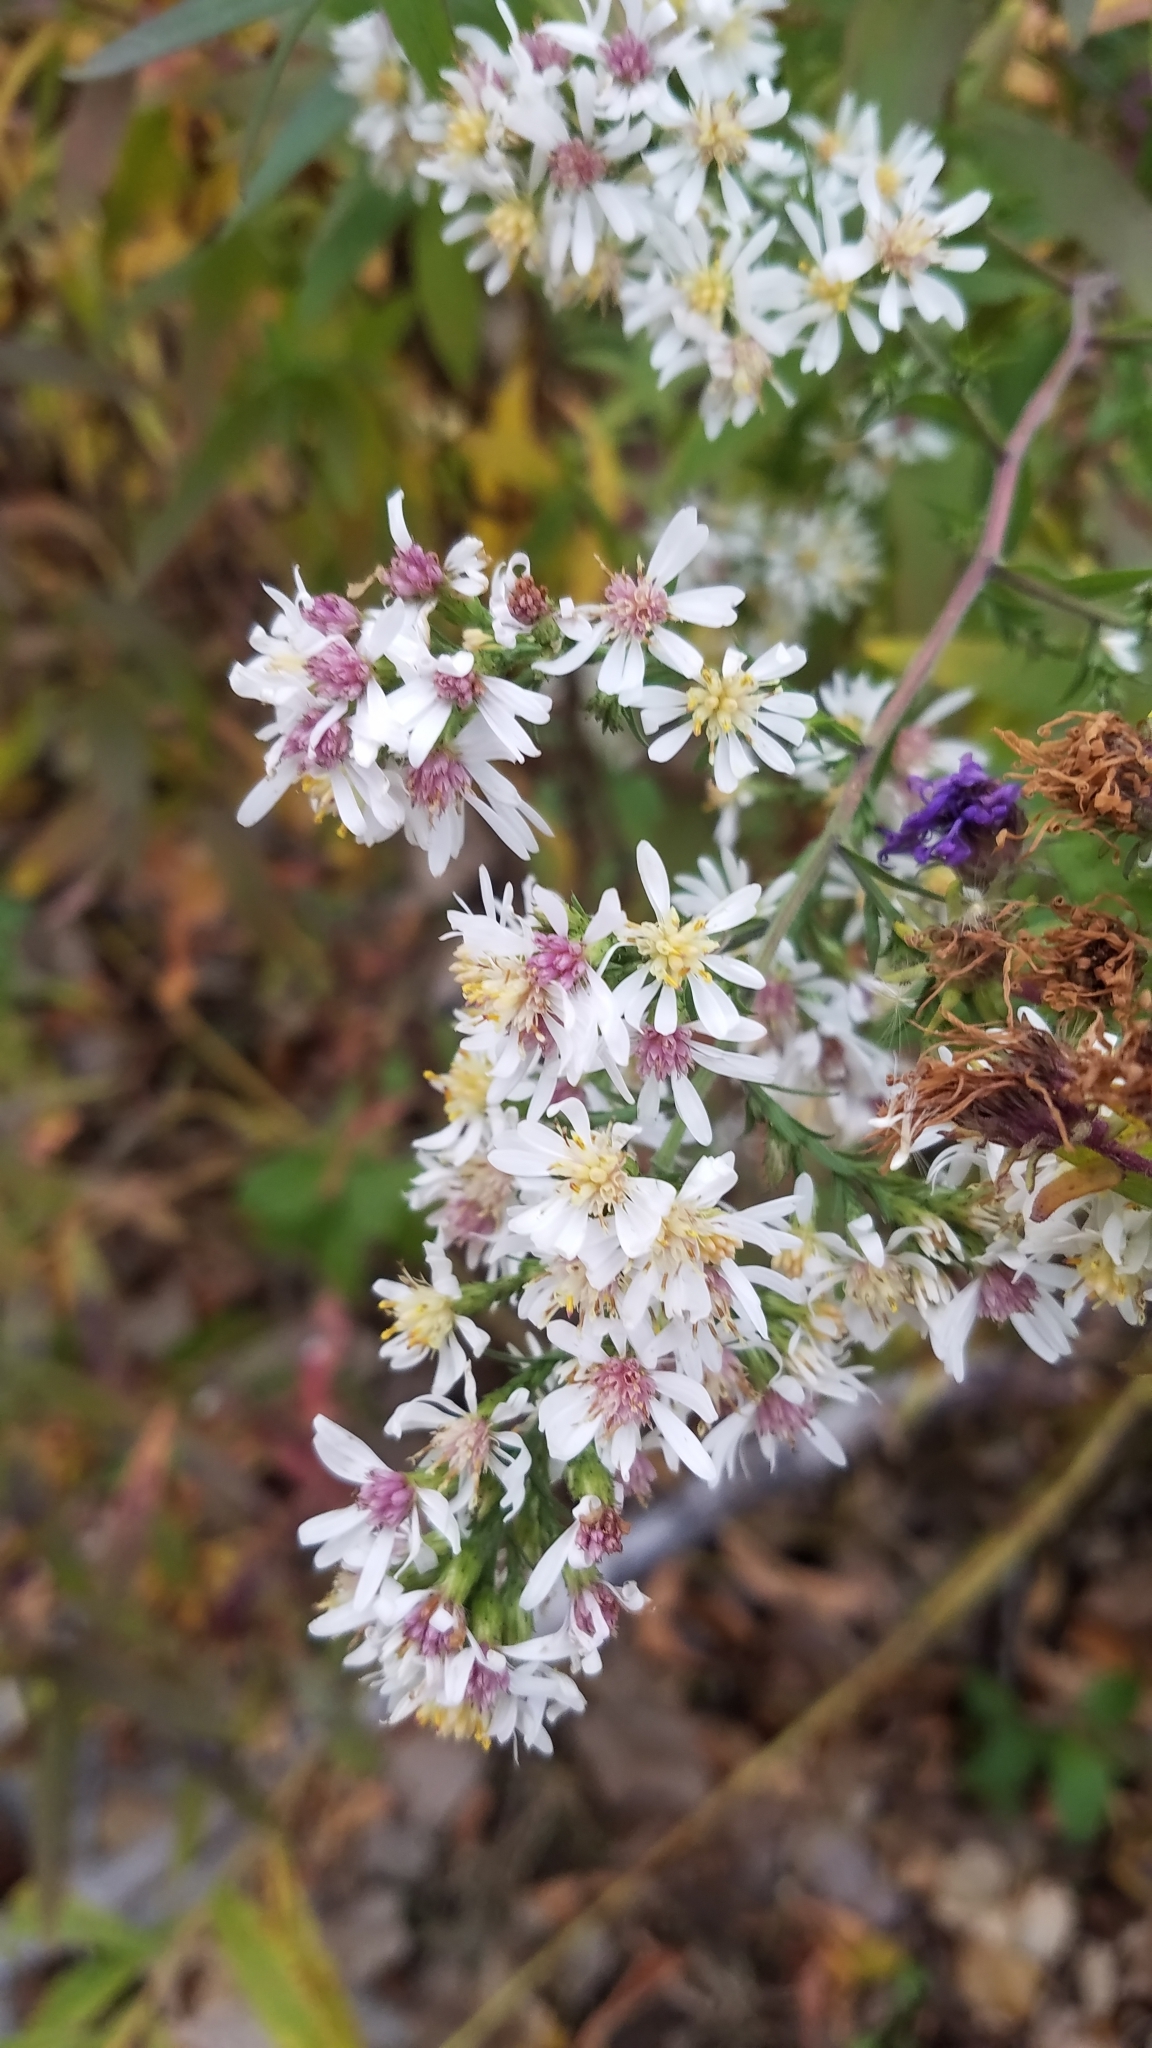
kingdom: Plantae
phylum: Tracheophyta
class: Magnoliopsida
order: Asterales
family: Asteraceae
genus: Symphyotrichum
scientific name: Symphyotrichum urophyllum
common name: Arrow-leaved aster
